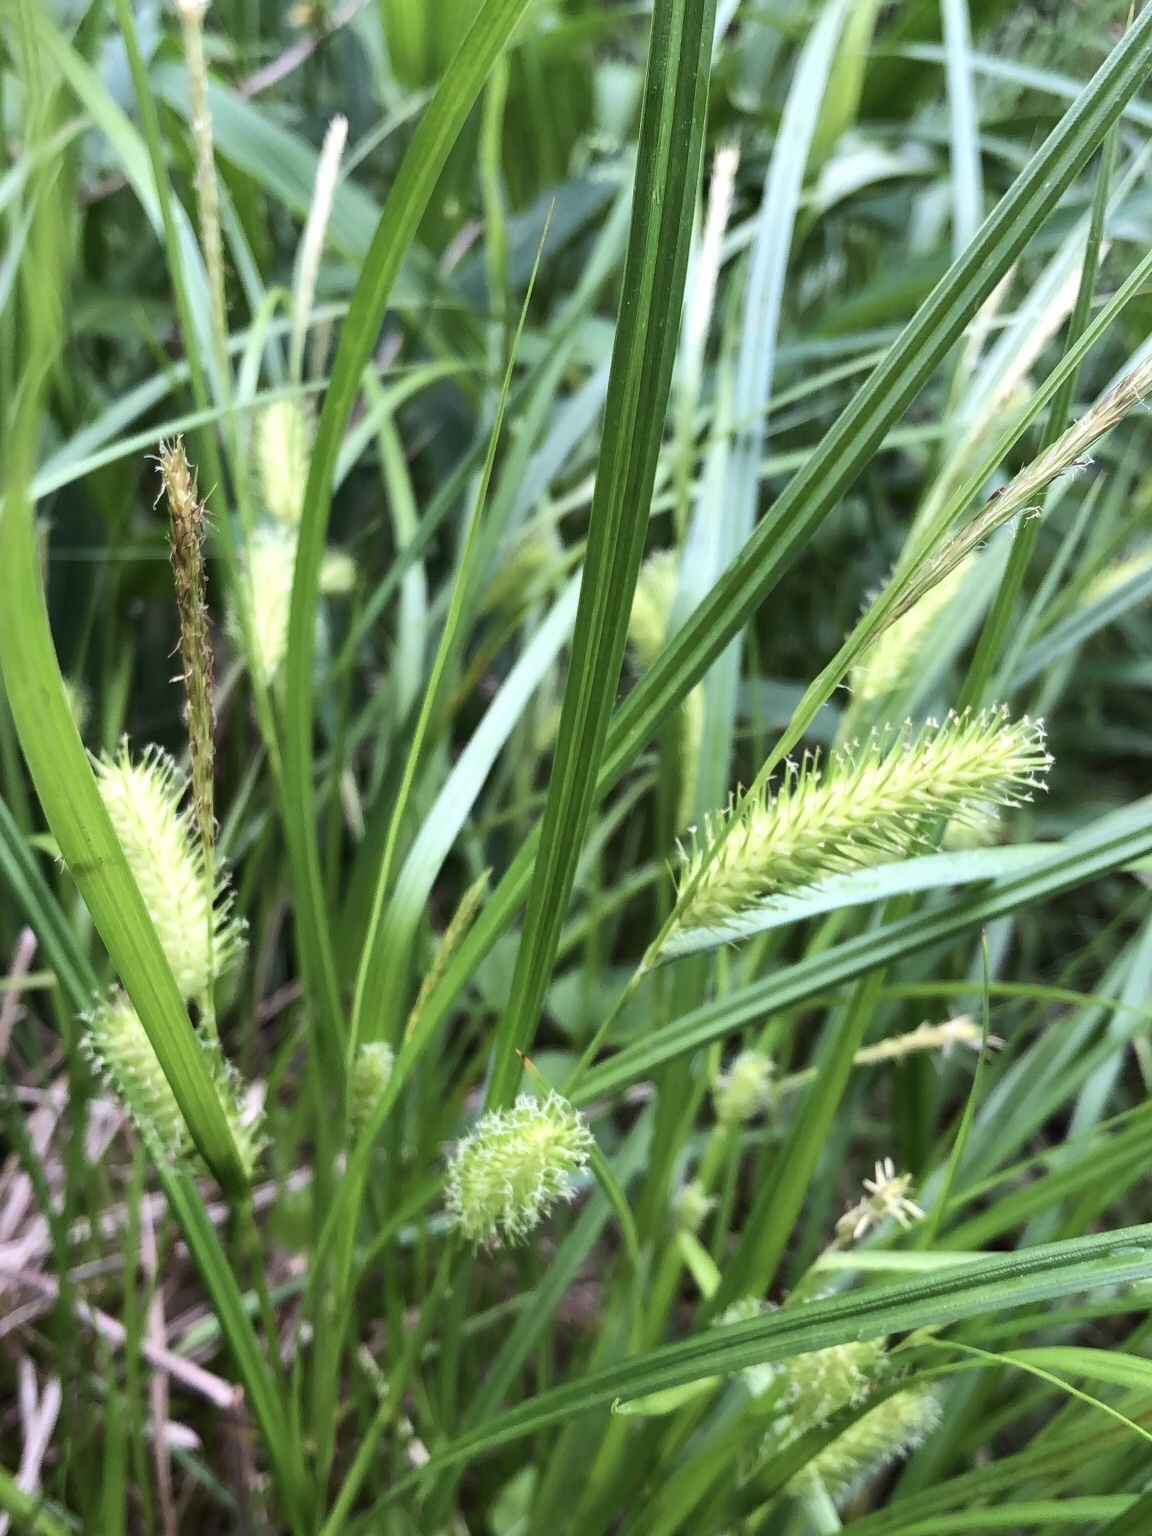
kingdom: Plantae
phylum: Tracheophyta
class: Liliopsida
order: Poales
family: Cyperaceae
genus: Carex
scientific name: Carex lurida
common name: Sallow sedge
